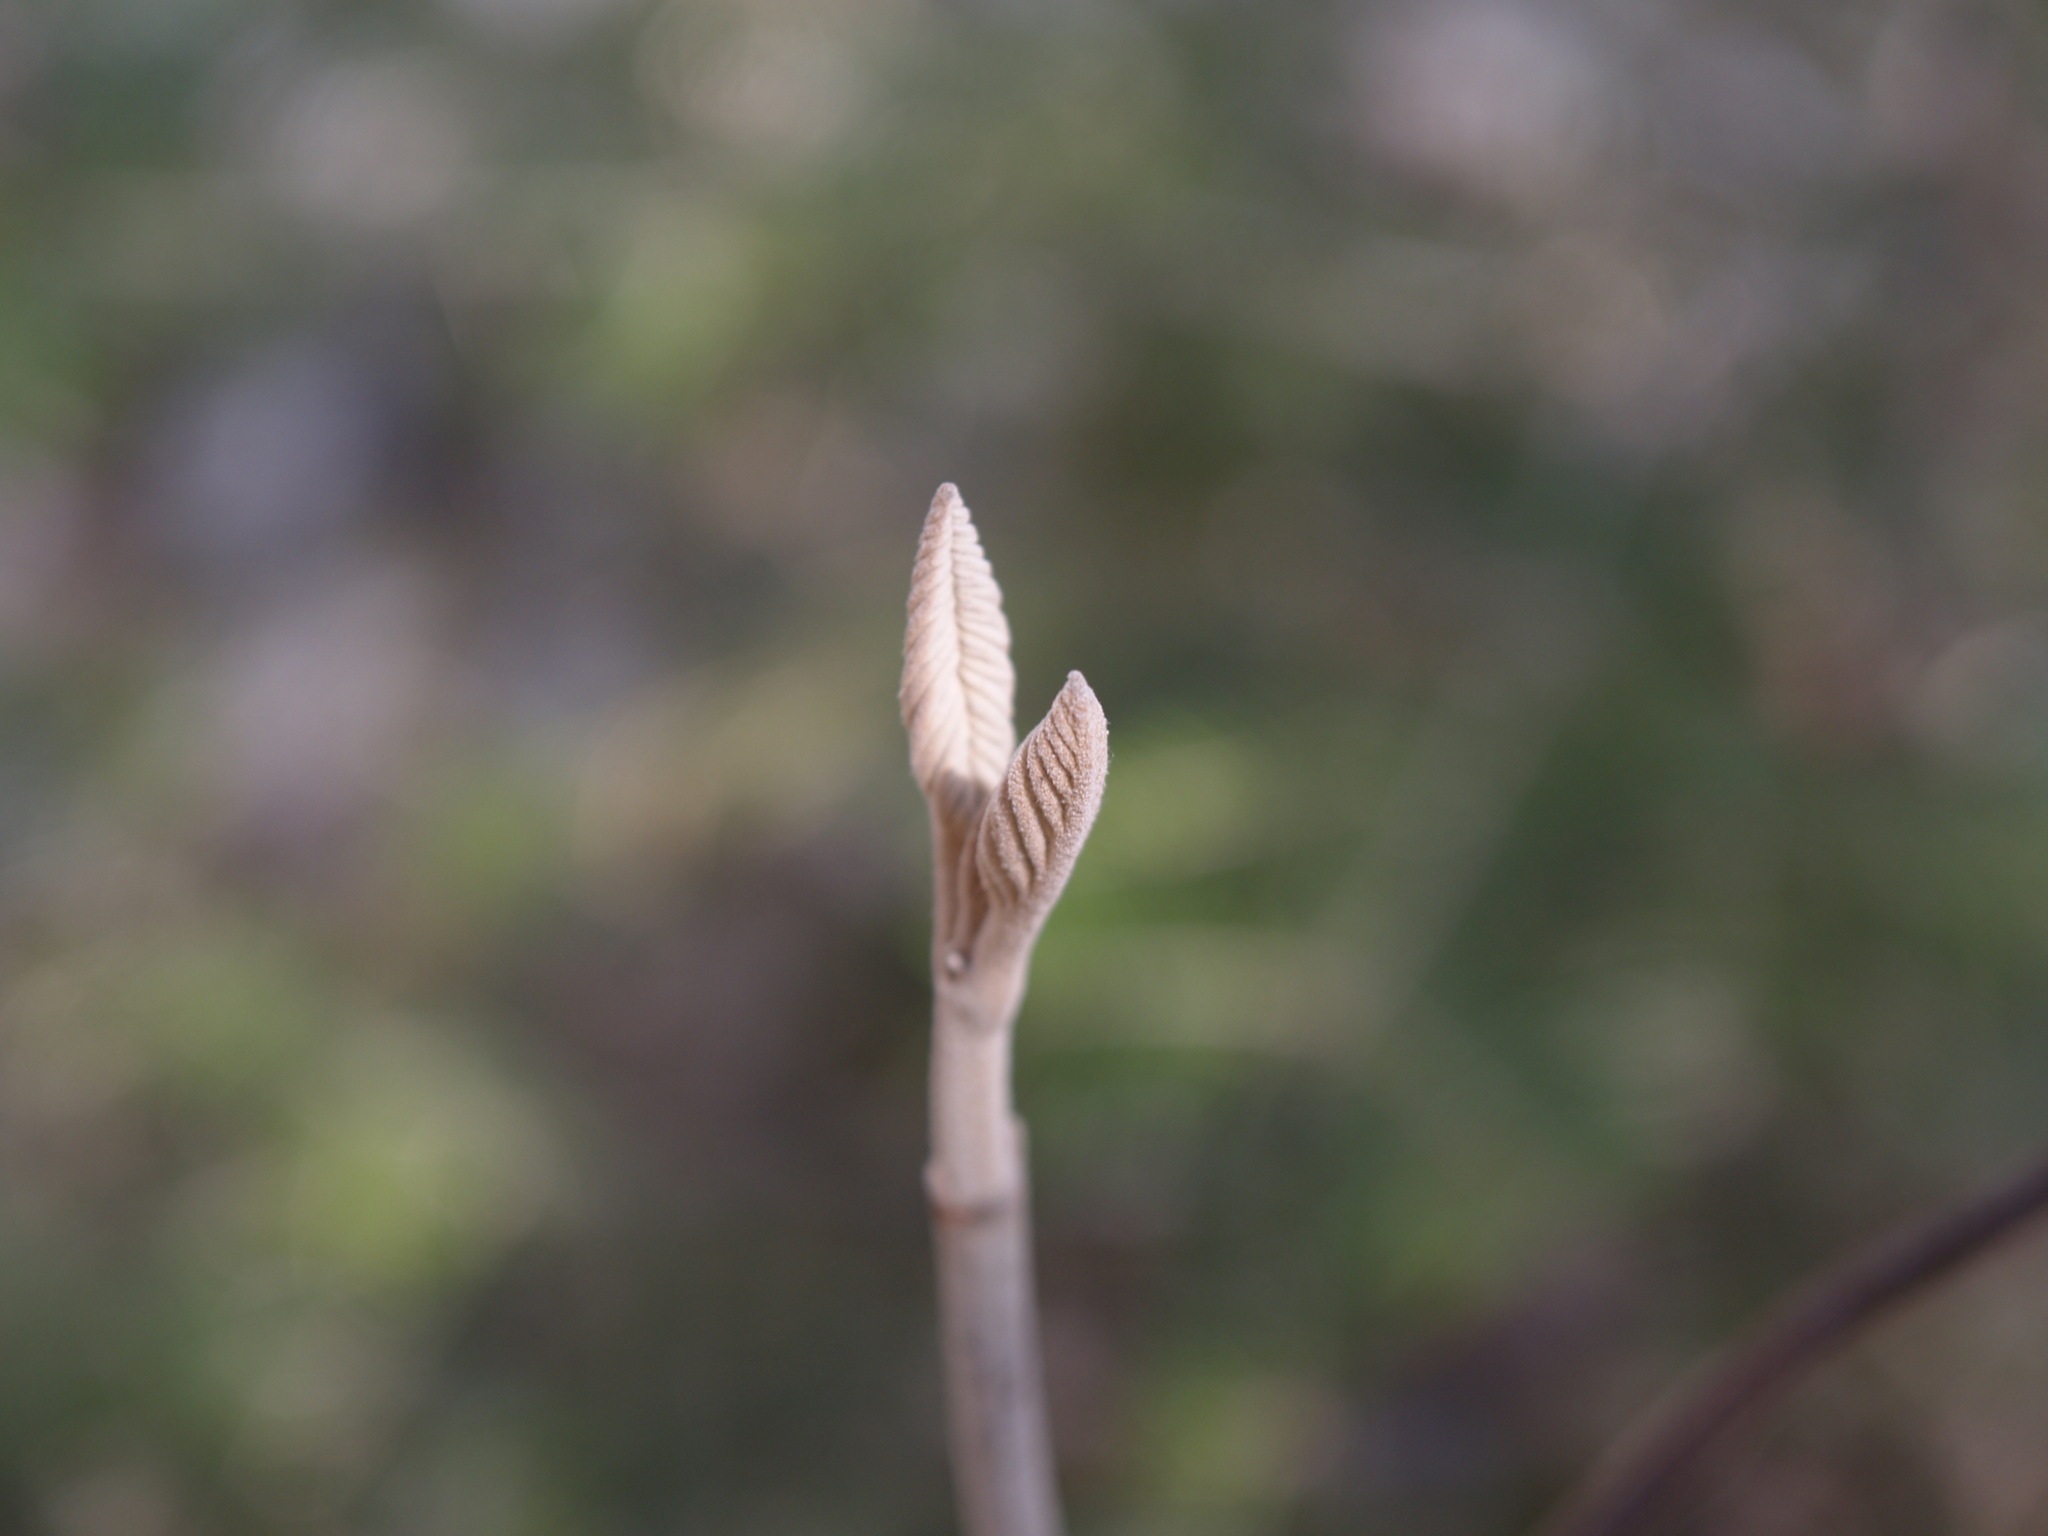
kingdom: Plantae
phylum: Tracheophyta
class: Magnoliopsida
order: Dipsacales
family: Viburnaceae
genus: Viburnum
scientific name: Viburnum lantanoides
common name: Hobblebush
